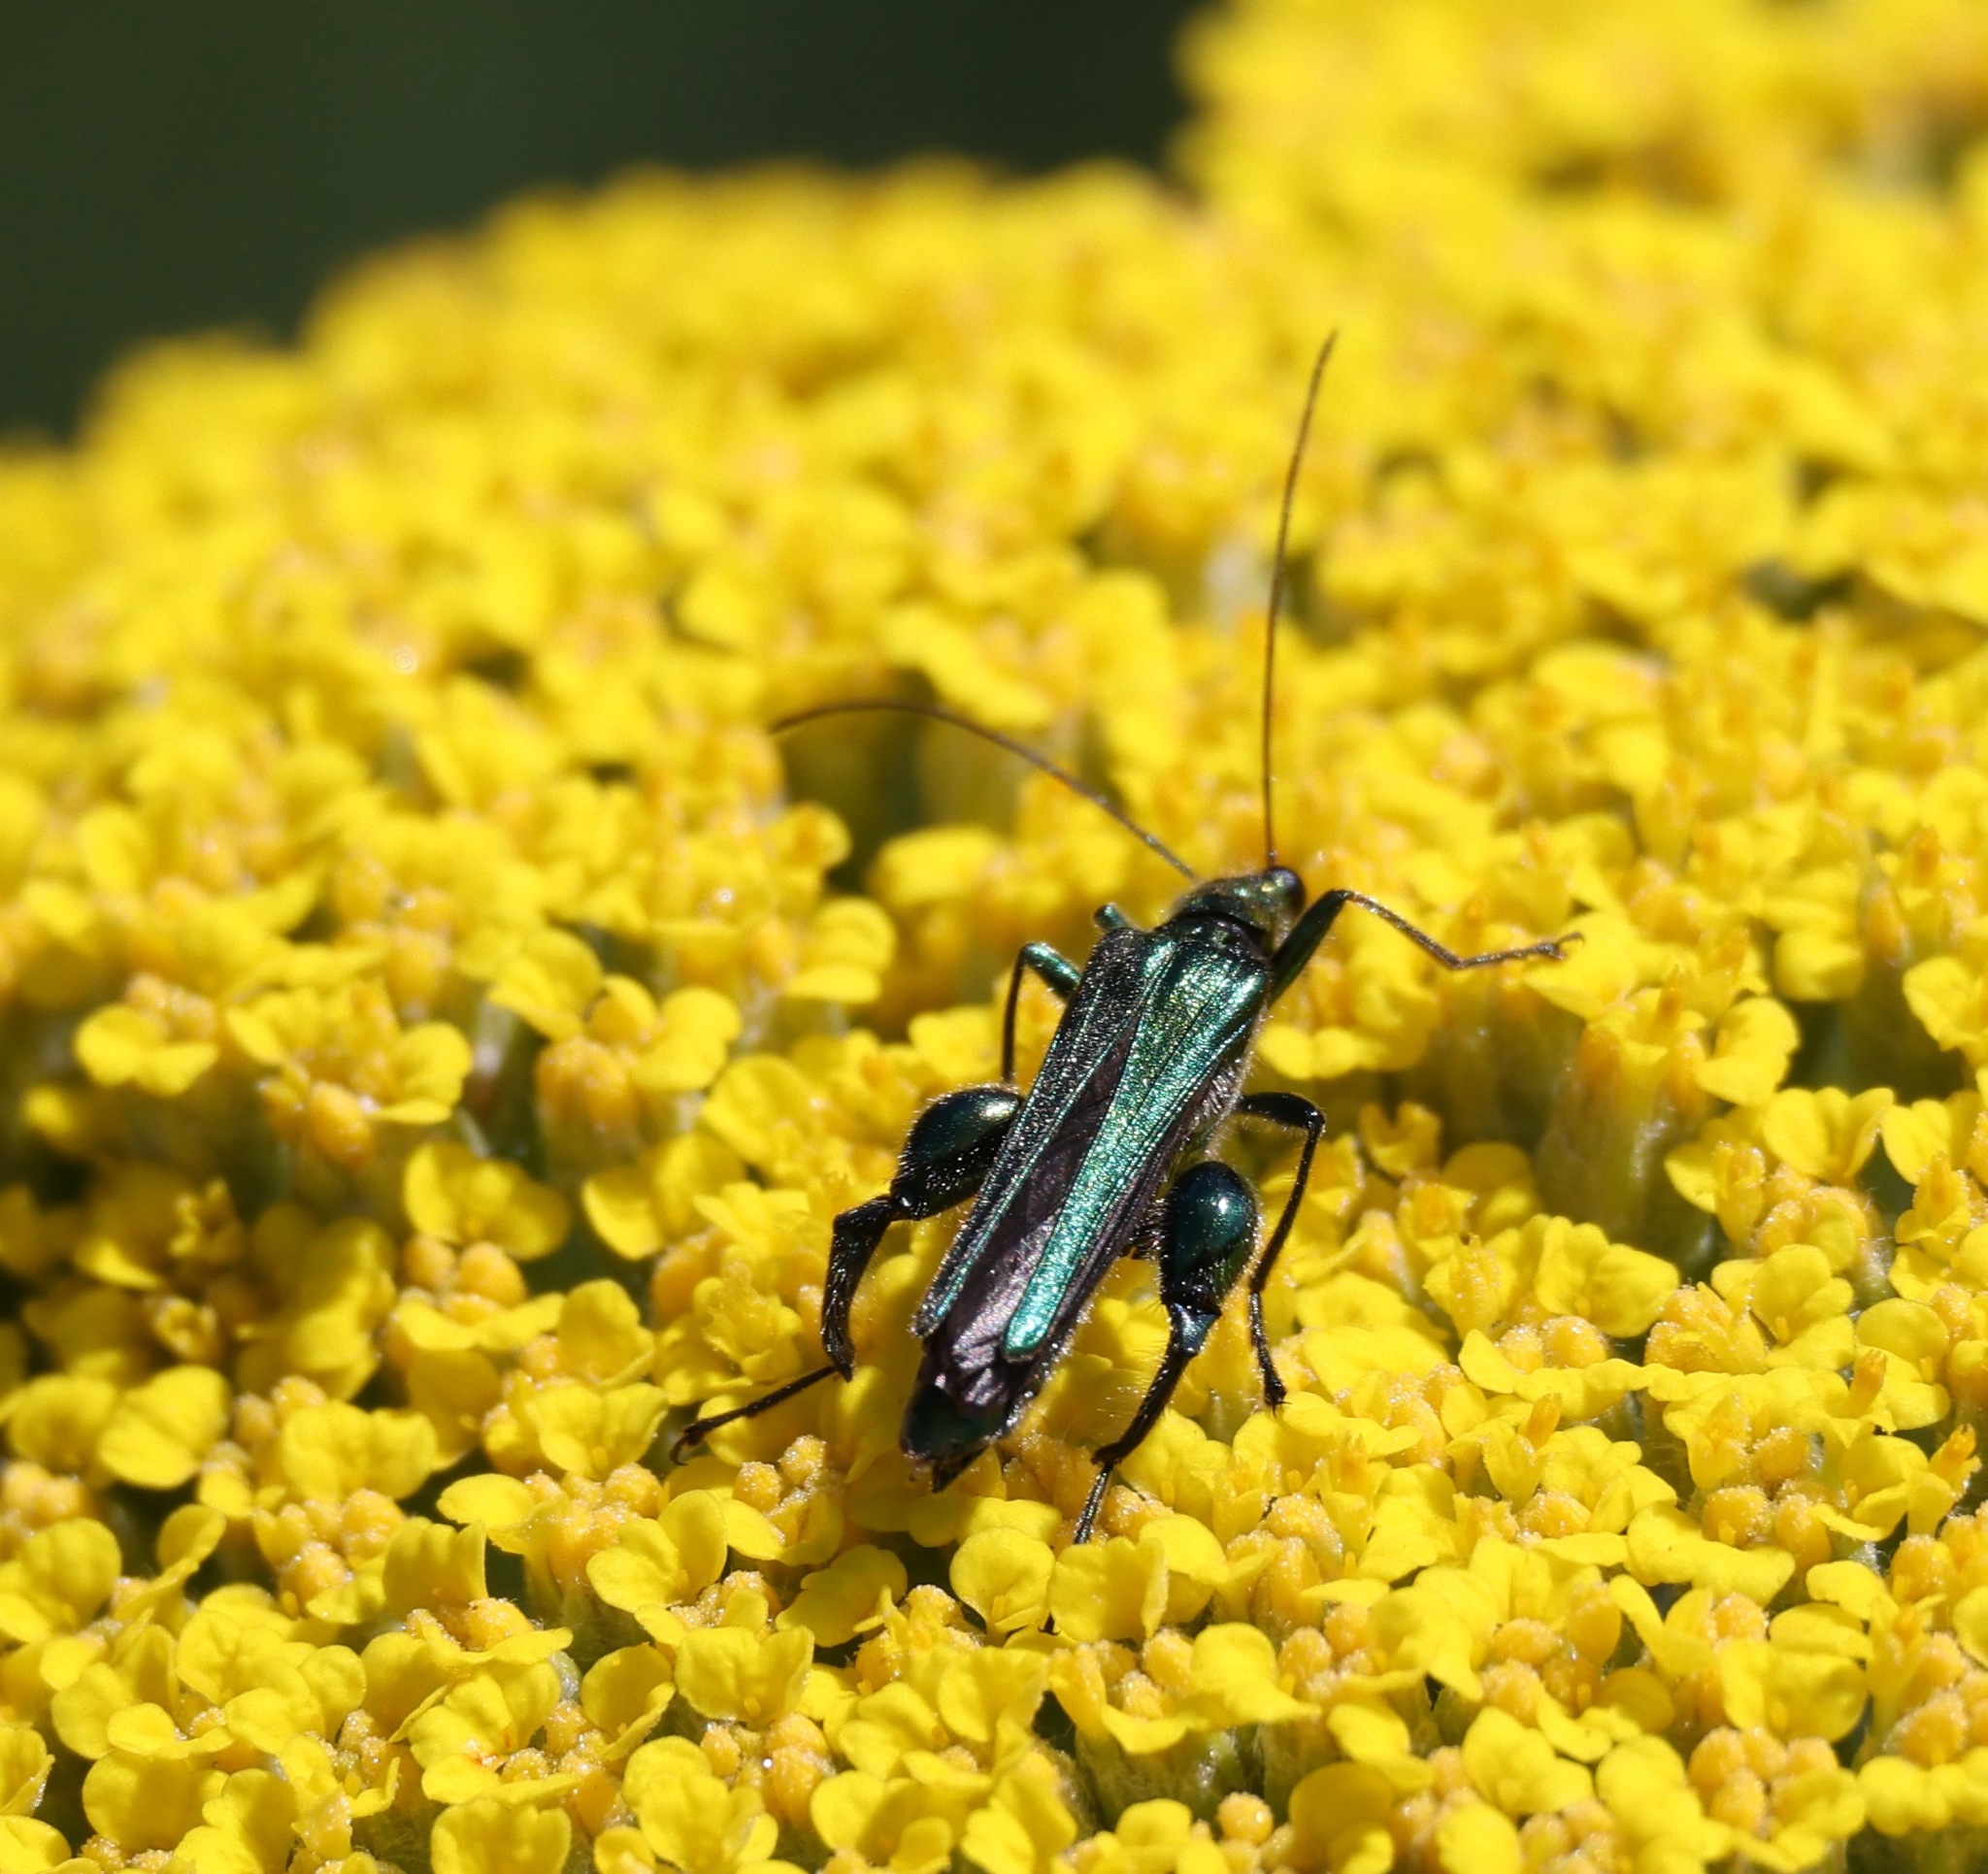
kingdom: Animalia
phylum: Arthropoda
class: Insecta
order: Coleoptera
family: Oedemeridae
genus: Oedemera
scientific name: Oedemera nobilis
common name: Swollen-thighed beetle
